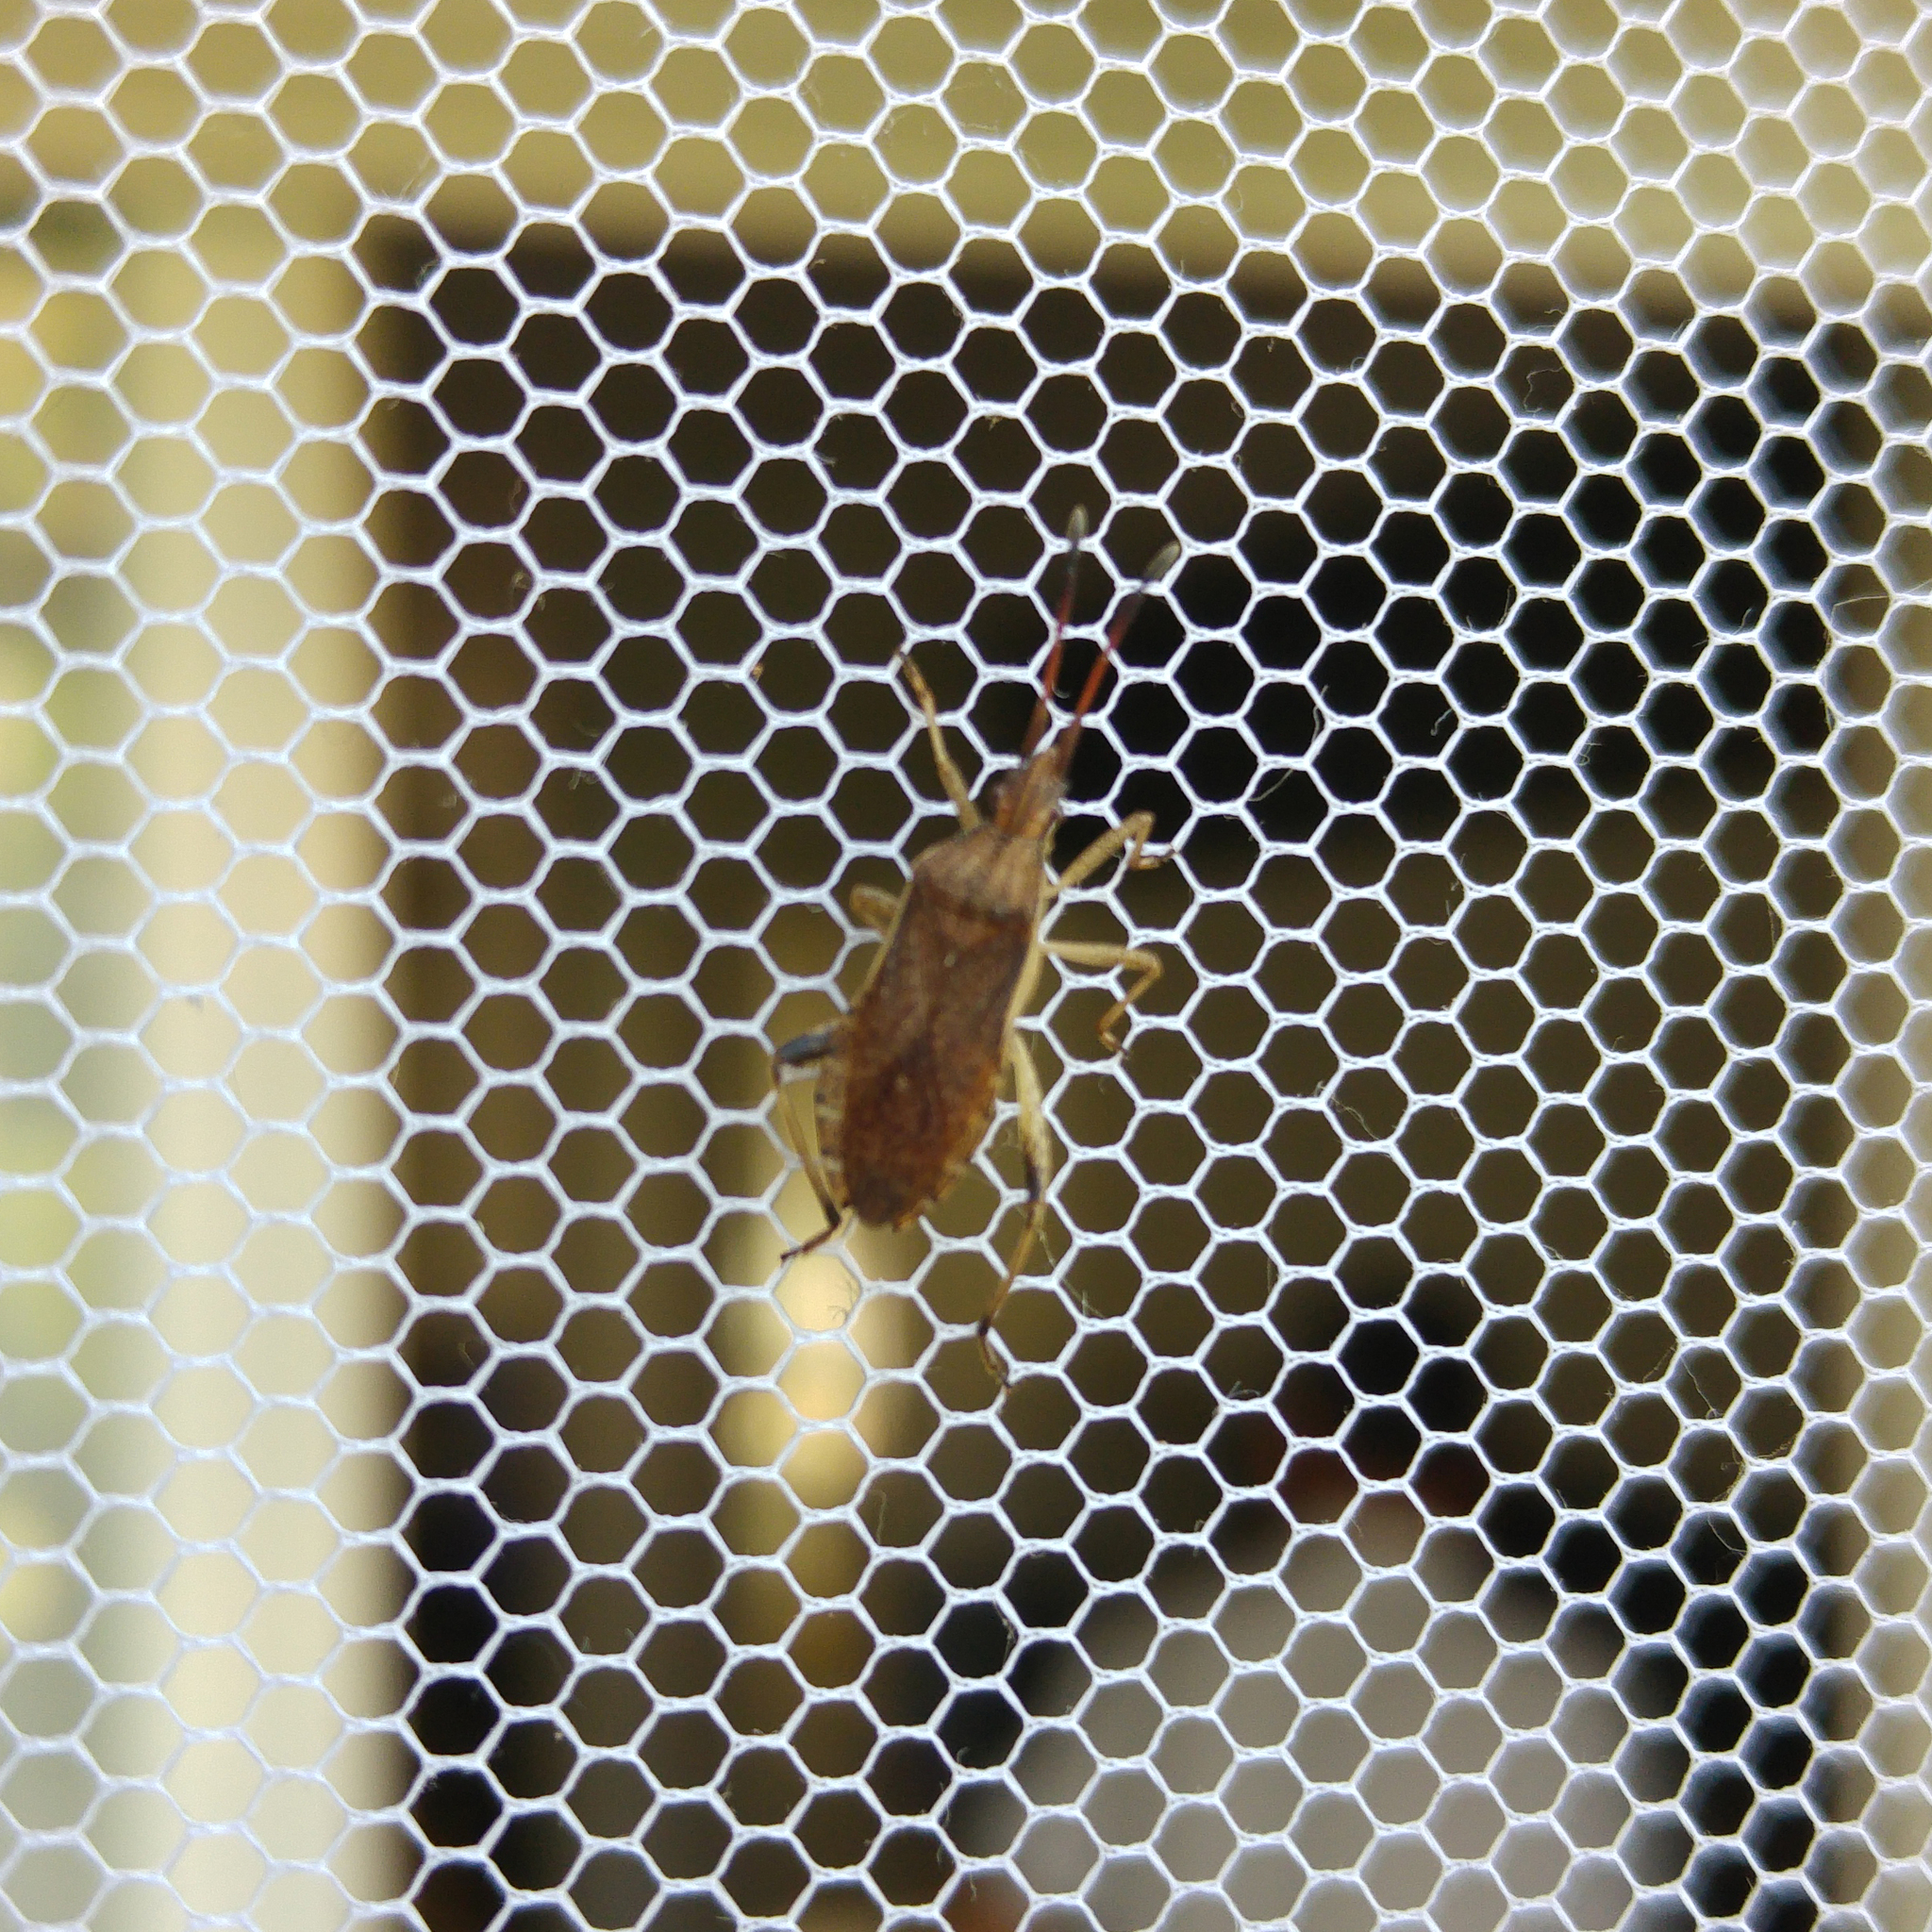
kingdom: Animalia
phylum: Arthropoda
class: Insecta
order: Hemiptera
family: Coreidae
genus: Ceraleptus
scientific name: Ceraleptus lividus
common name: Slender-horned leatherbug
